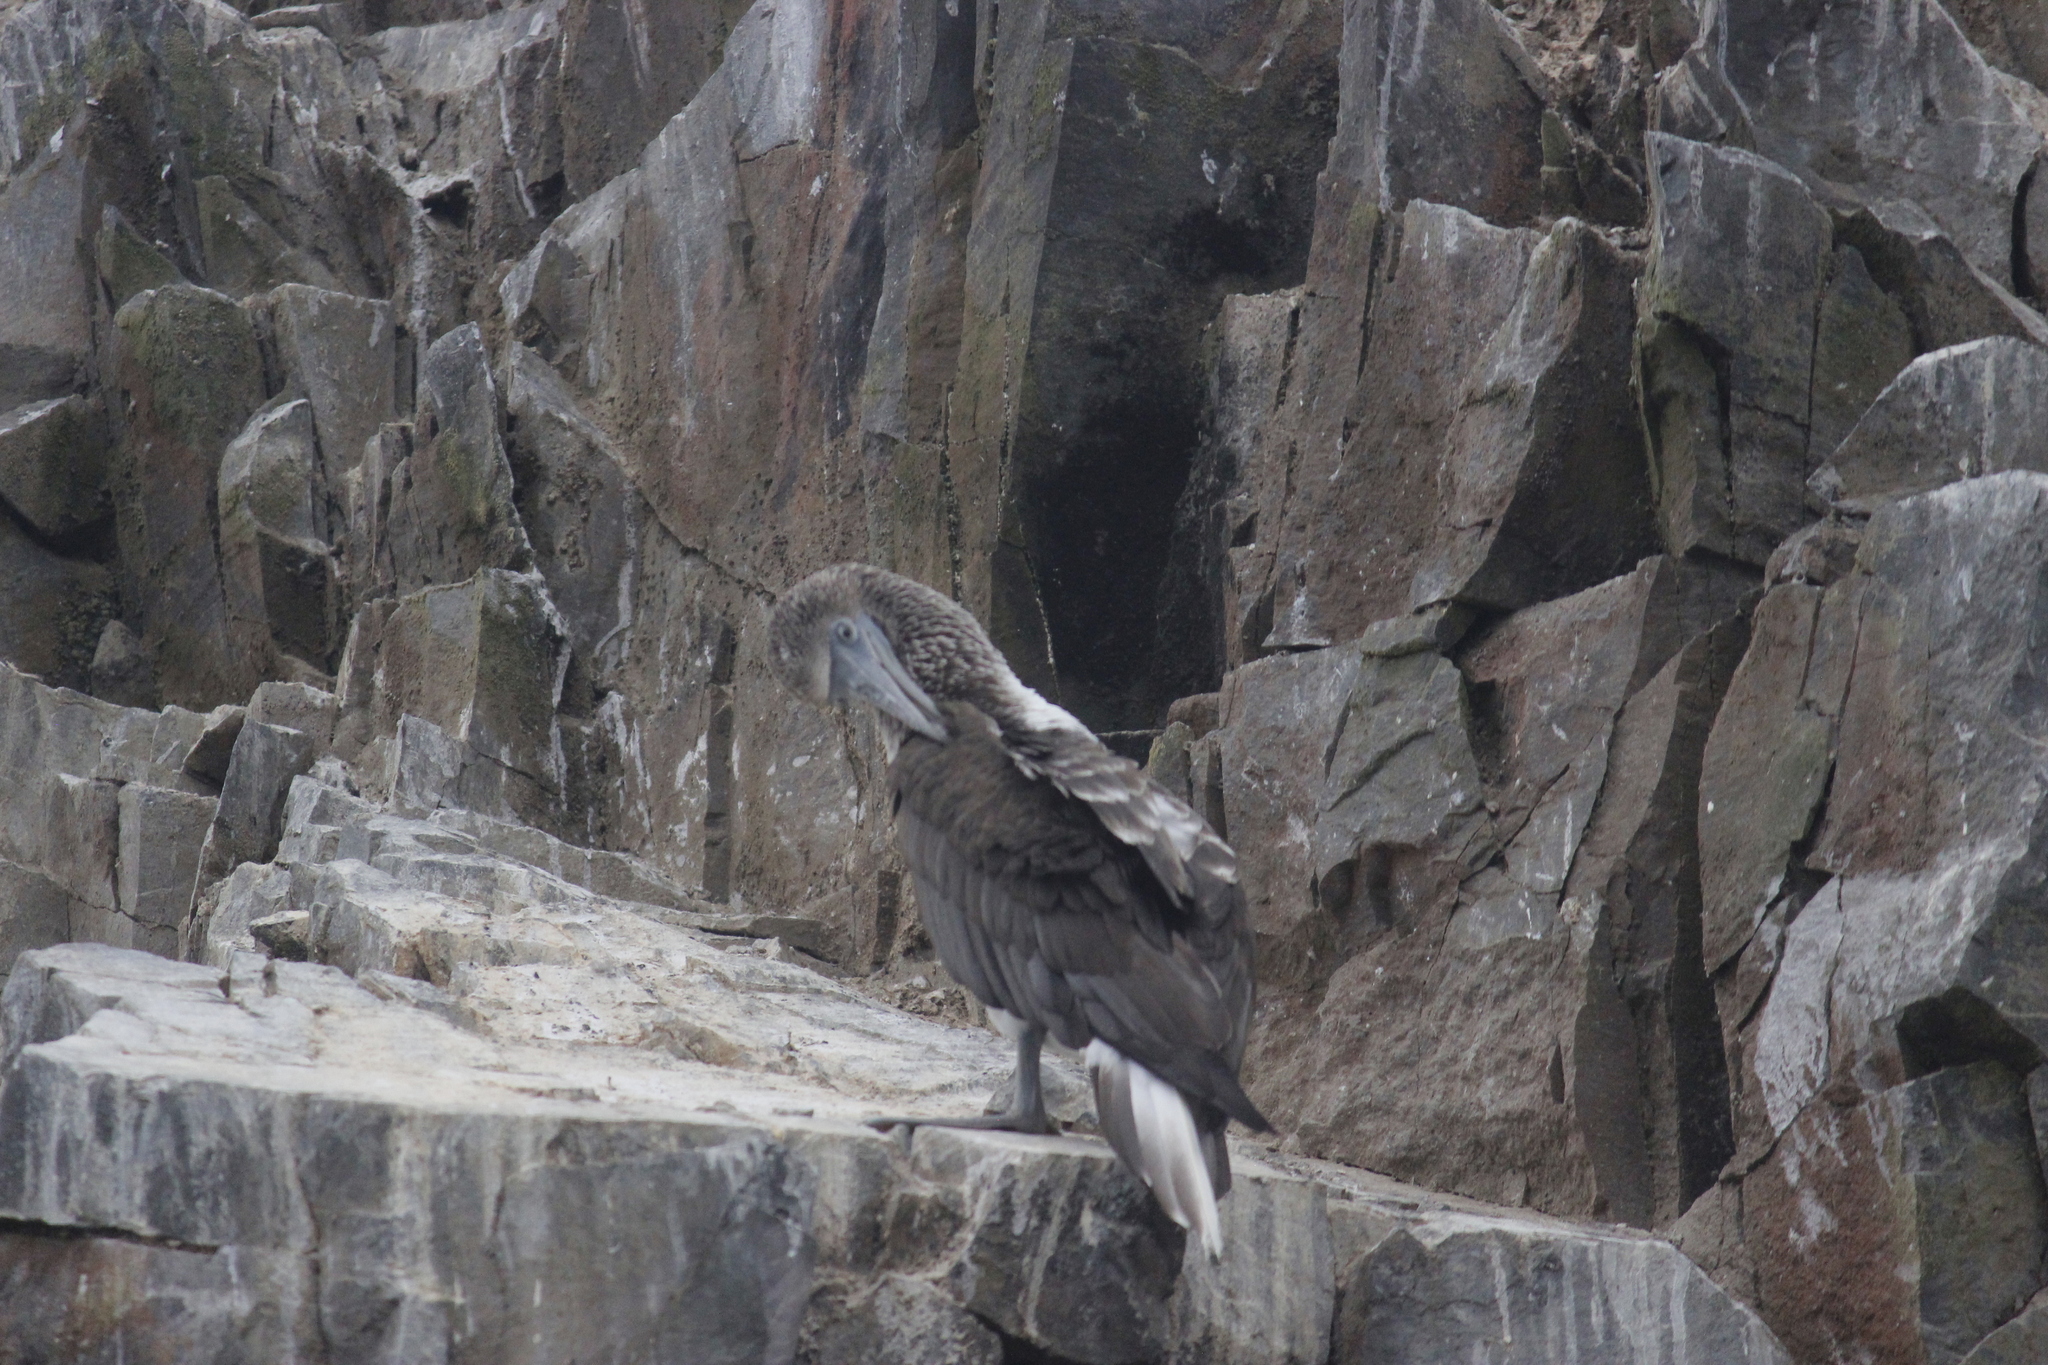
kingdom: Animalia
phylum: Chordata
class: Aves
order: Suliformes
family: Sulidae
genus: Sula
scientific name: Sula nebouxii
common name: Blue-footed booby
